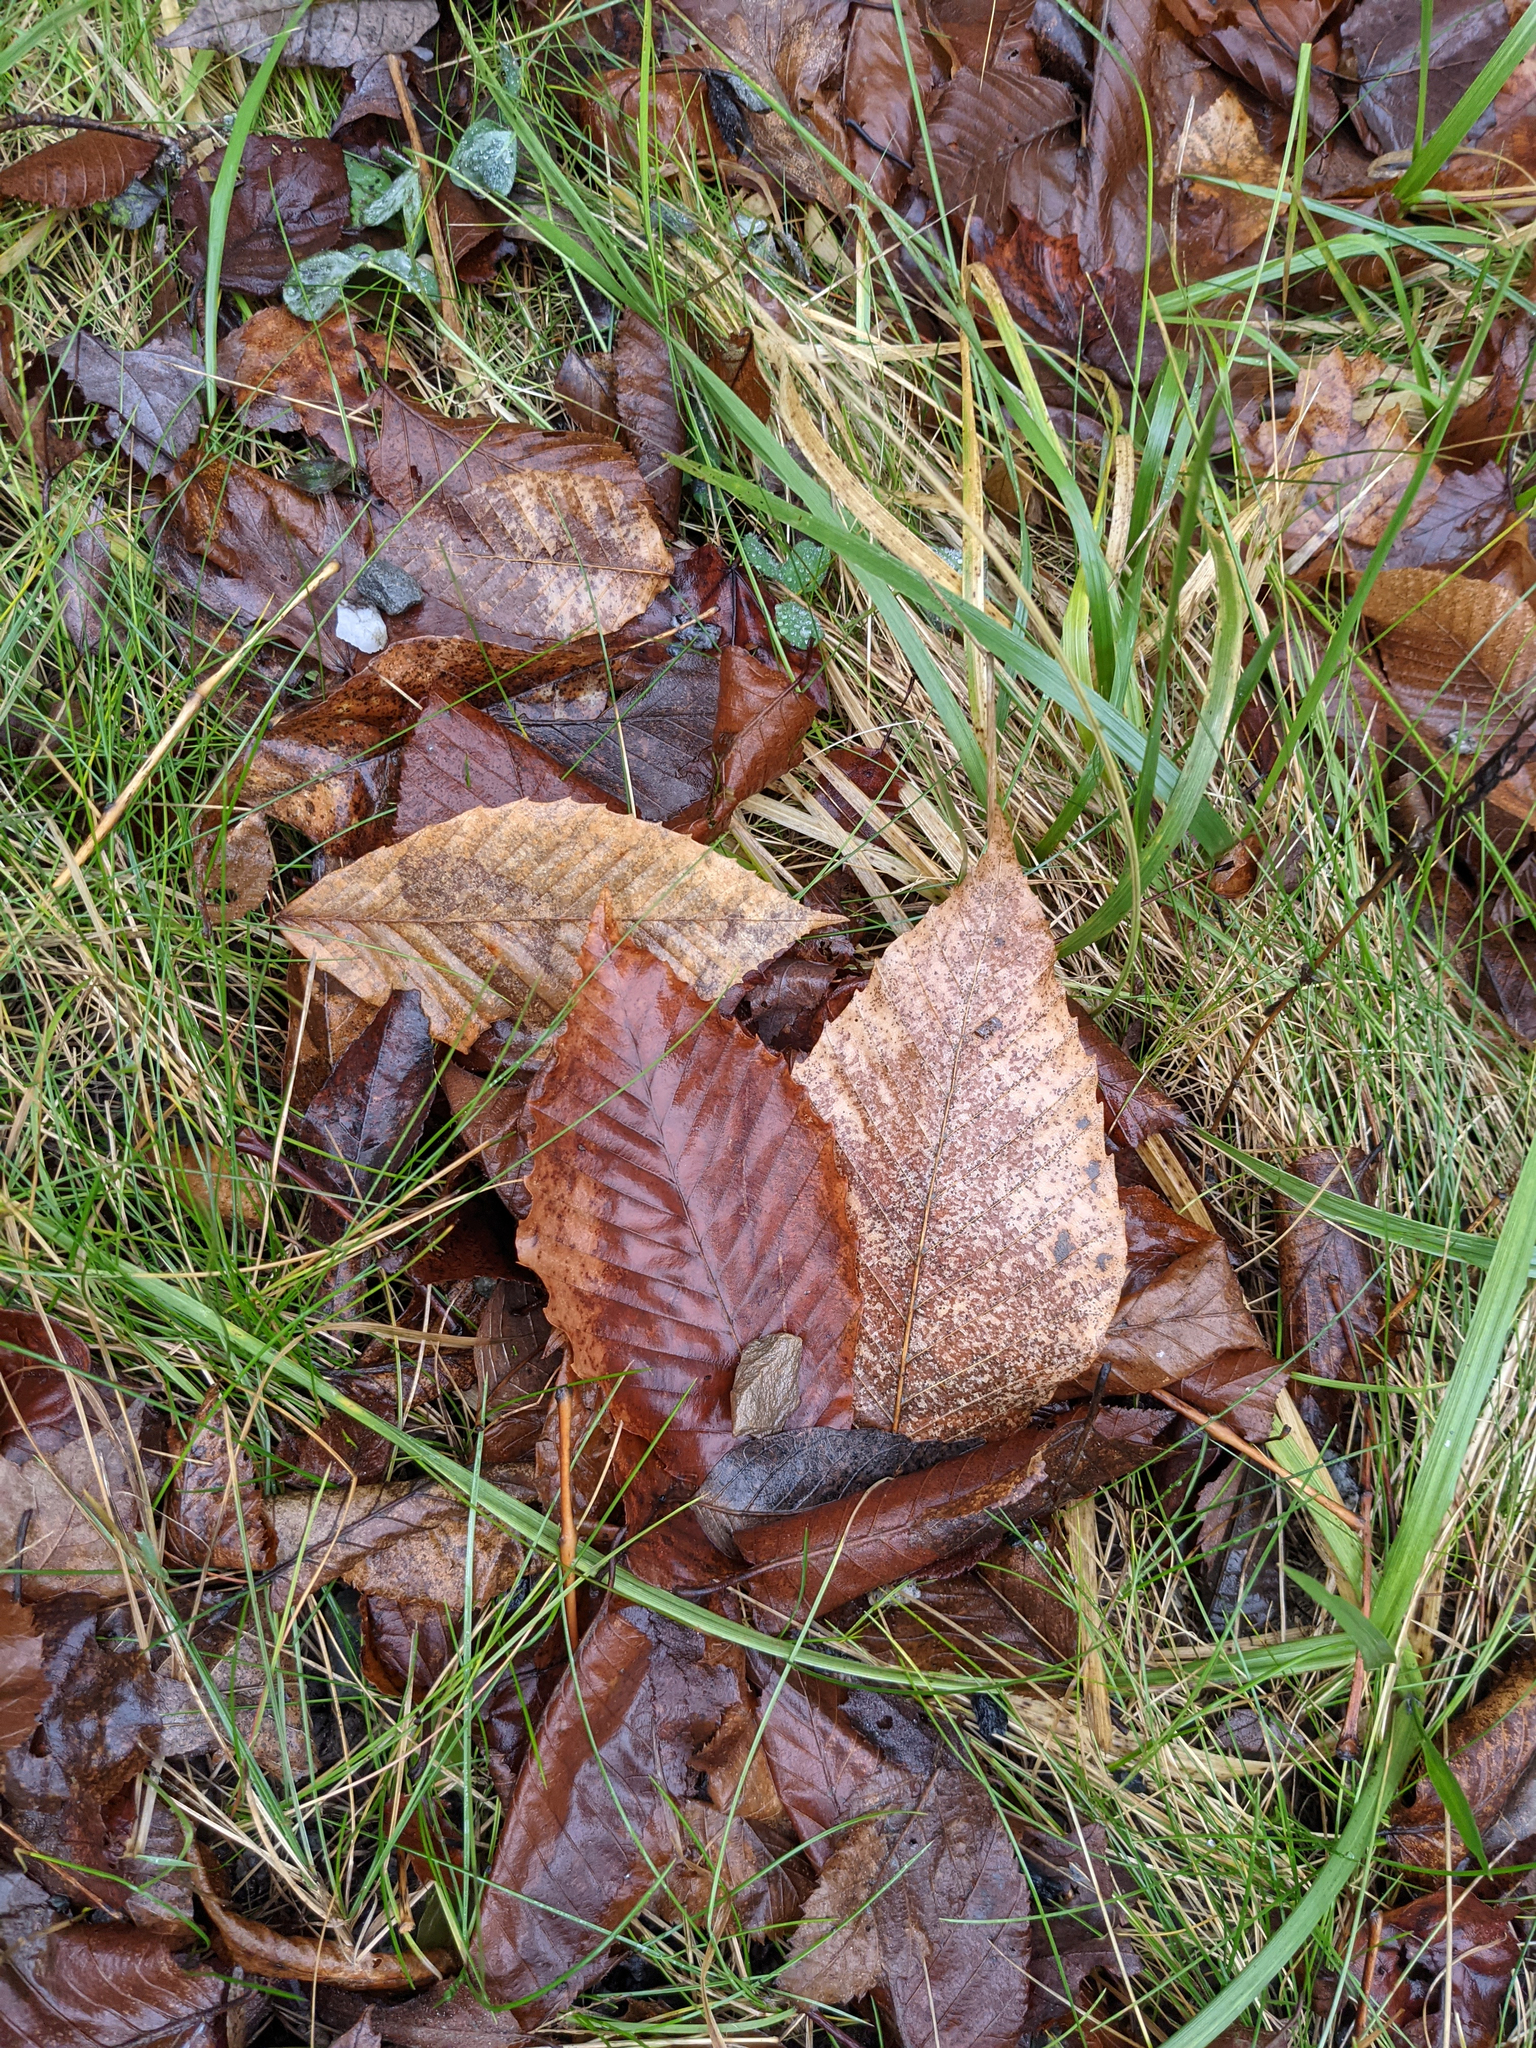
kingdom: Plantae
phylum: Tracheophyta
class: Magnoliopsida
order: Fagales
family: Fagaceae
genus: Fagus
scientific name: Fagus grandifolia
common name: American beech
